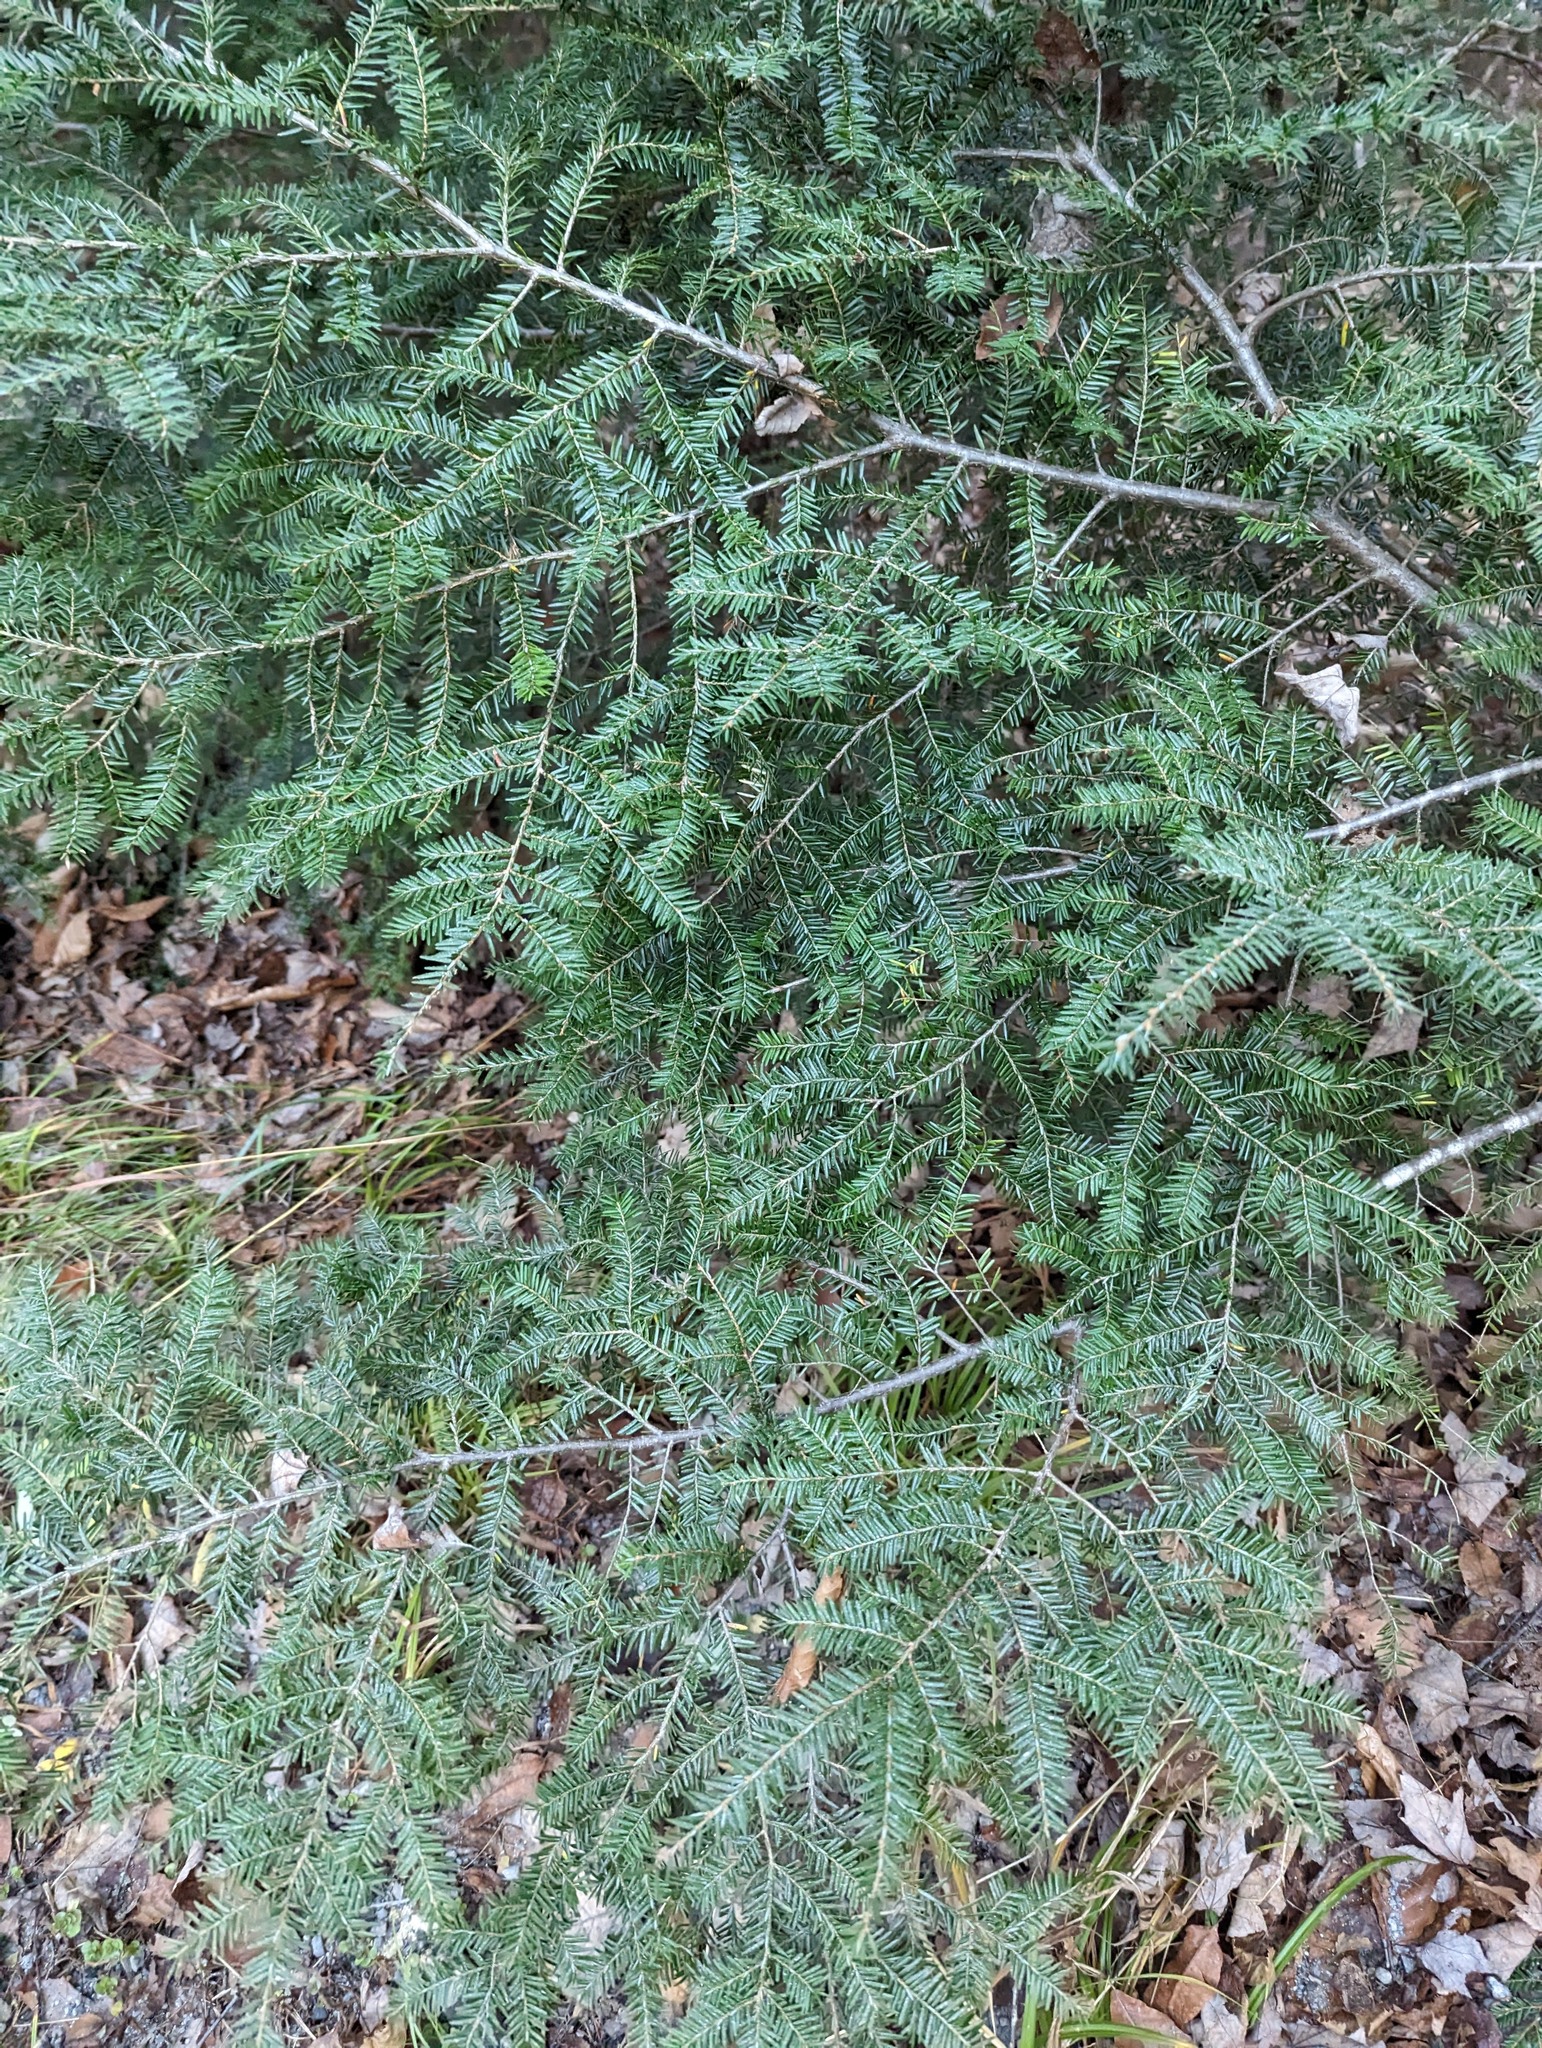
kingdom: Plantae
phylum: Tracheophyta
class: Pinopsida
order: Pinales
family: Pinaceae
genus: Tsuga
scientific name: Tsuga canadensis
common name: Eastern hemlock
